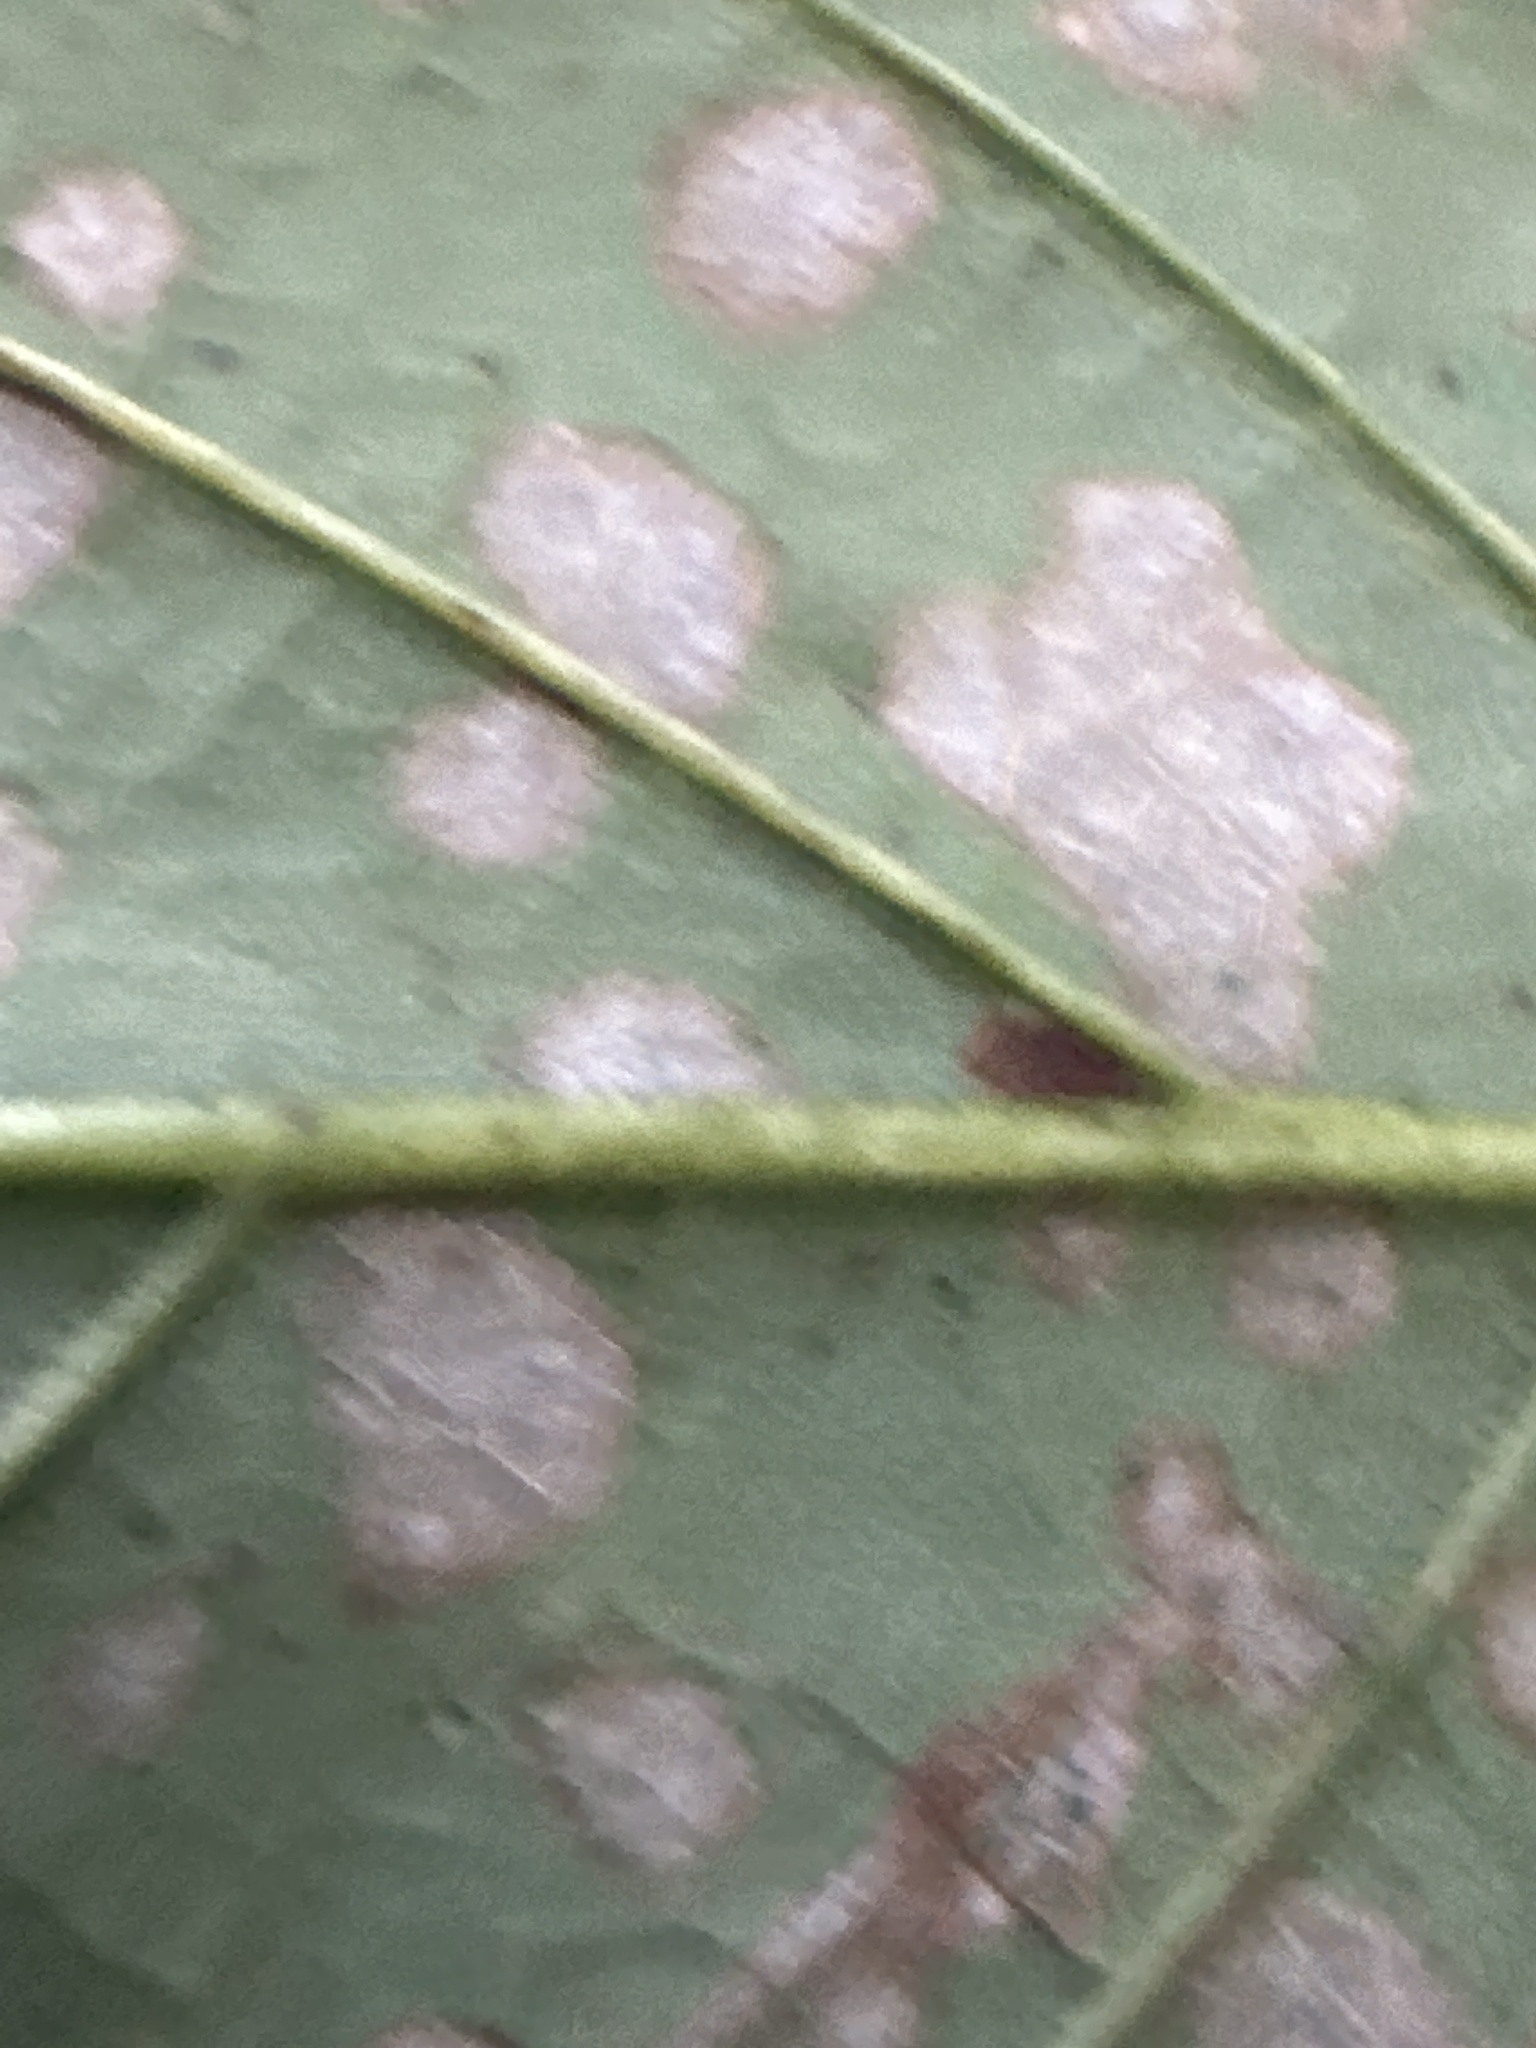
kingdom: Plantae
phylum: Tracheophyta
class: Magnoliopsida
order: Sapindales
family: Sapindaceae
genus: Acer
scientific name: Acer pseudoplatanus
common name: Sycamore
